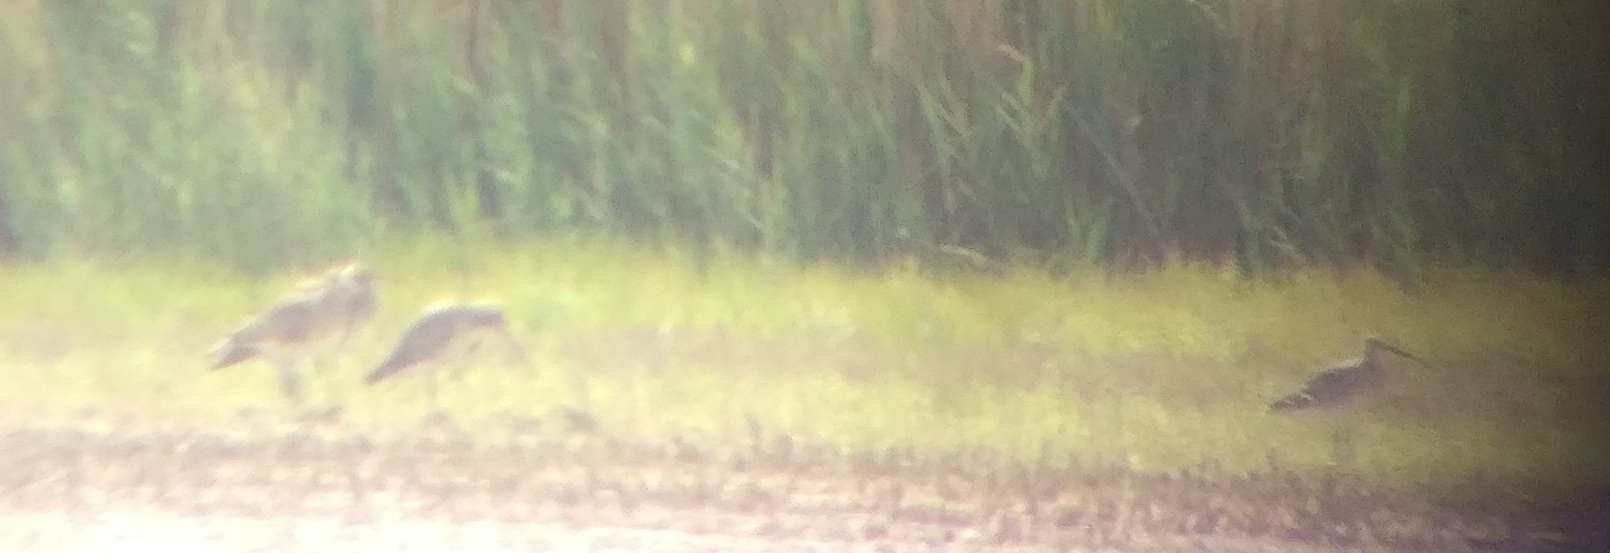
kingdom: Animalia
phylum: Chordata
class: Aves
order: Charadriiformes
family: Scolopacidae
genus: Numenius
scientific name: Numenius arquata
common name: Eurasian curlew
